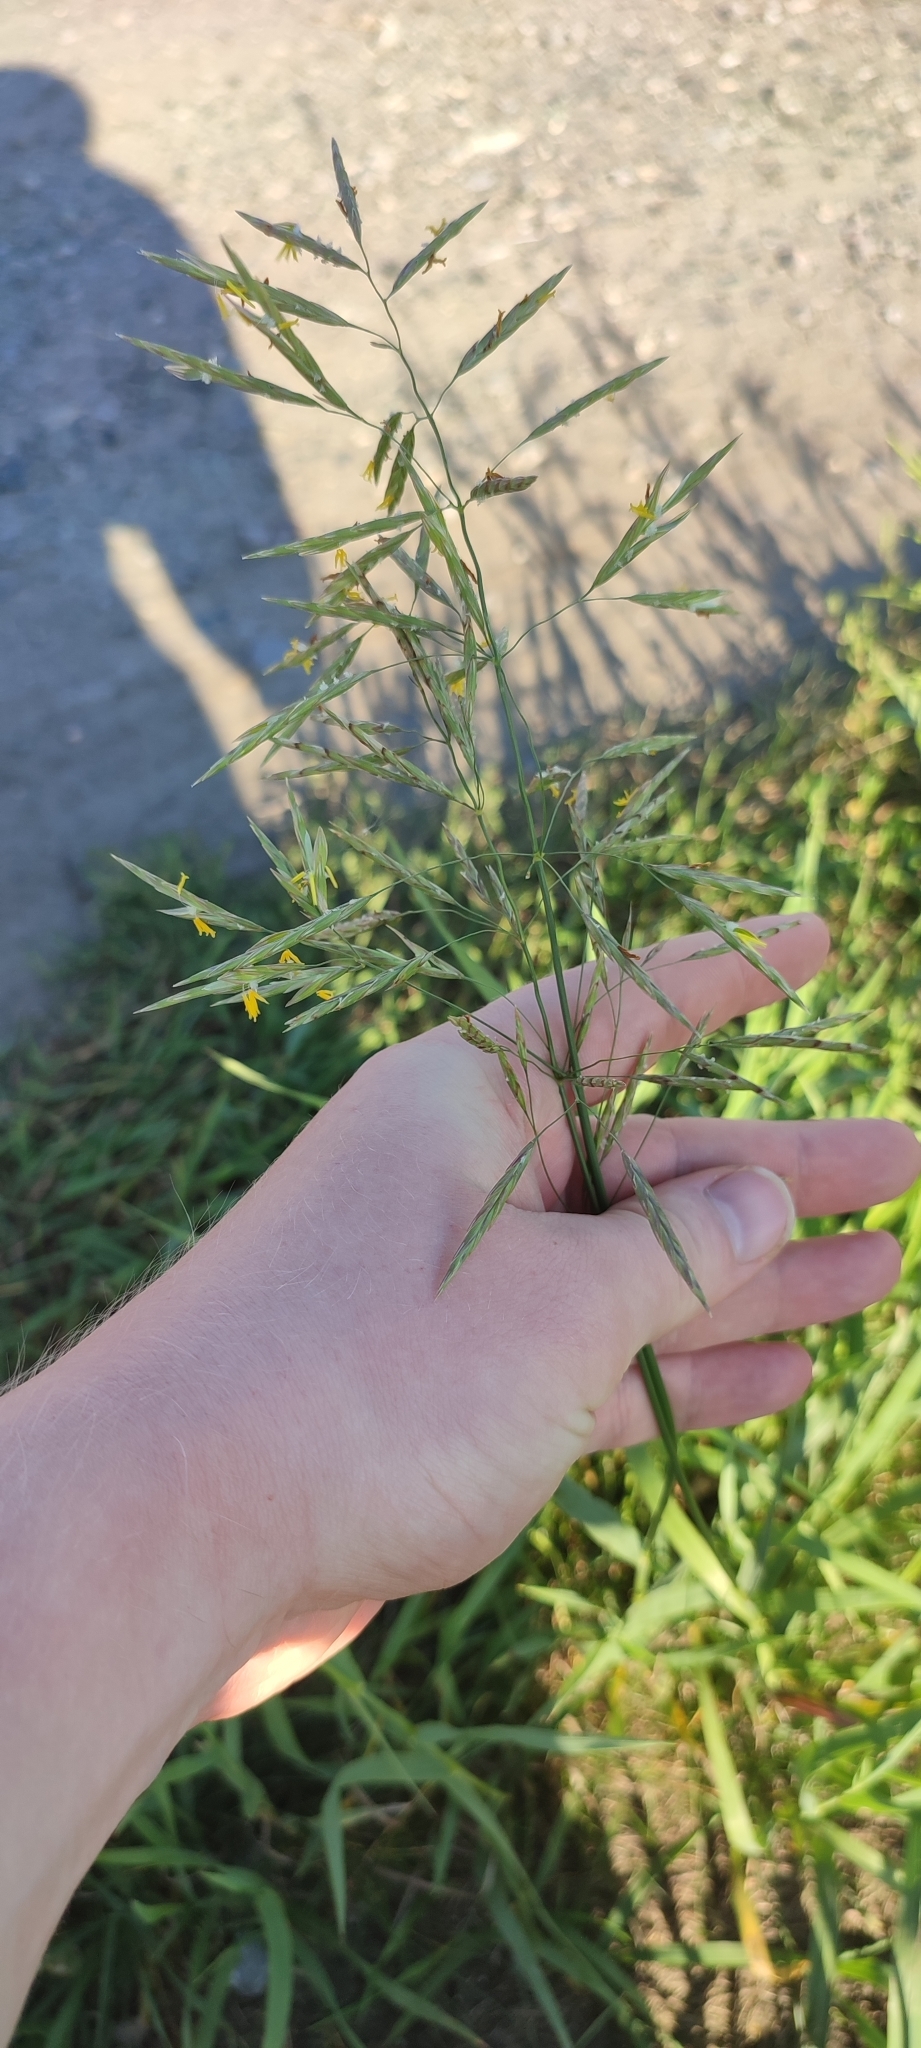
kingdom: Plantae
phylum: Tracheophyta
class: Liliopsida
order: Poales
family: Poaceae
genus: Bromus
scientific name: Bromus inermis
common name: Smooth brome
